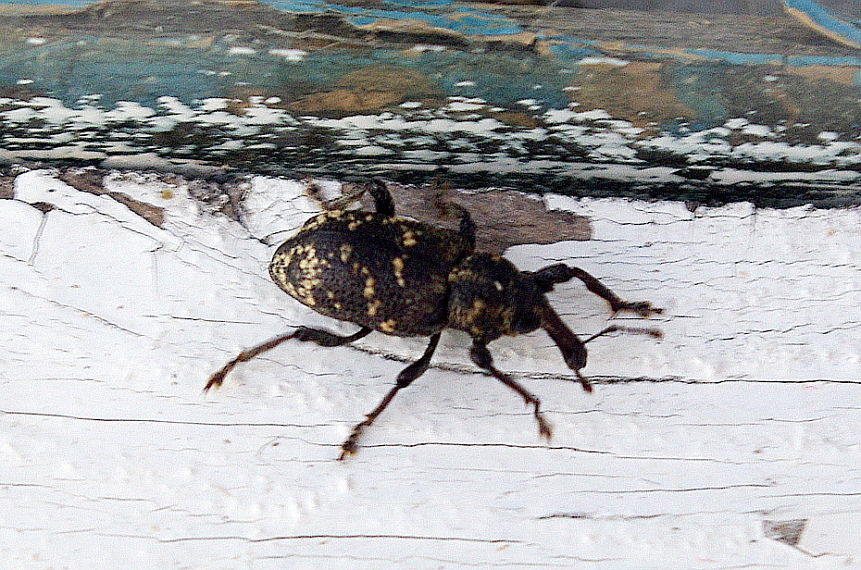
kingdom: Animalia
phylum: Arthropoda
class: Insecta
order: Coleoptera
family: Curculionidae
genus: Hylobius
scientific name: Hylobius abietis
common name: Large pine weevil
